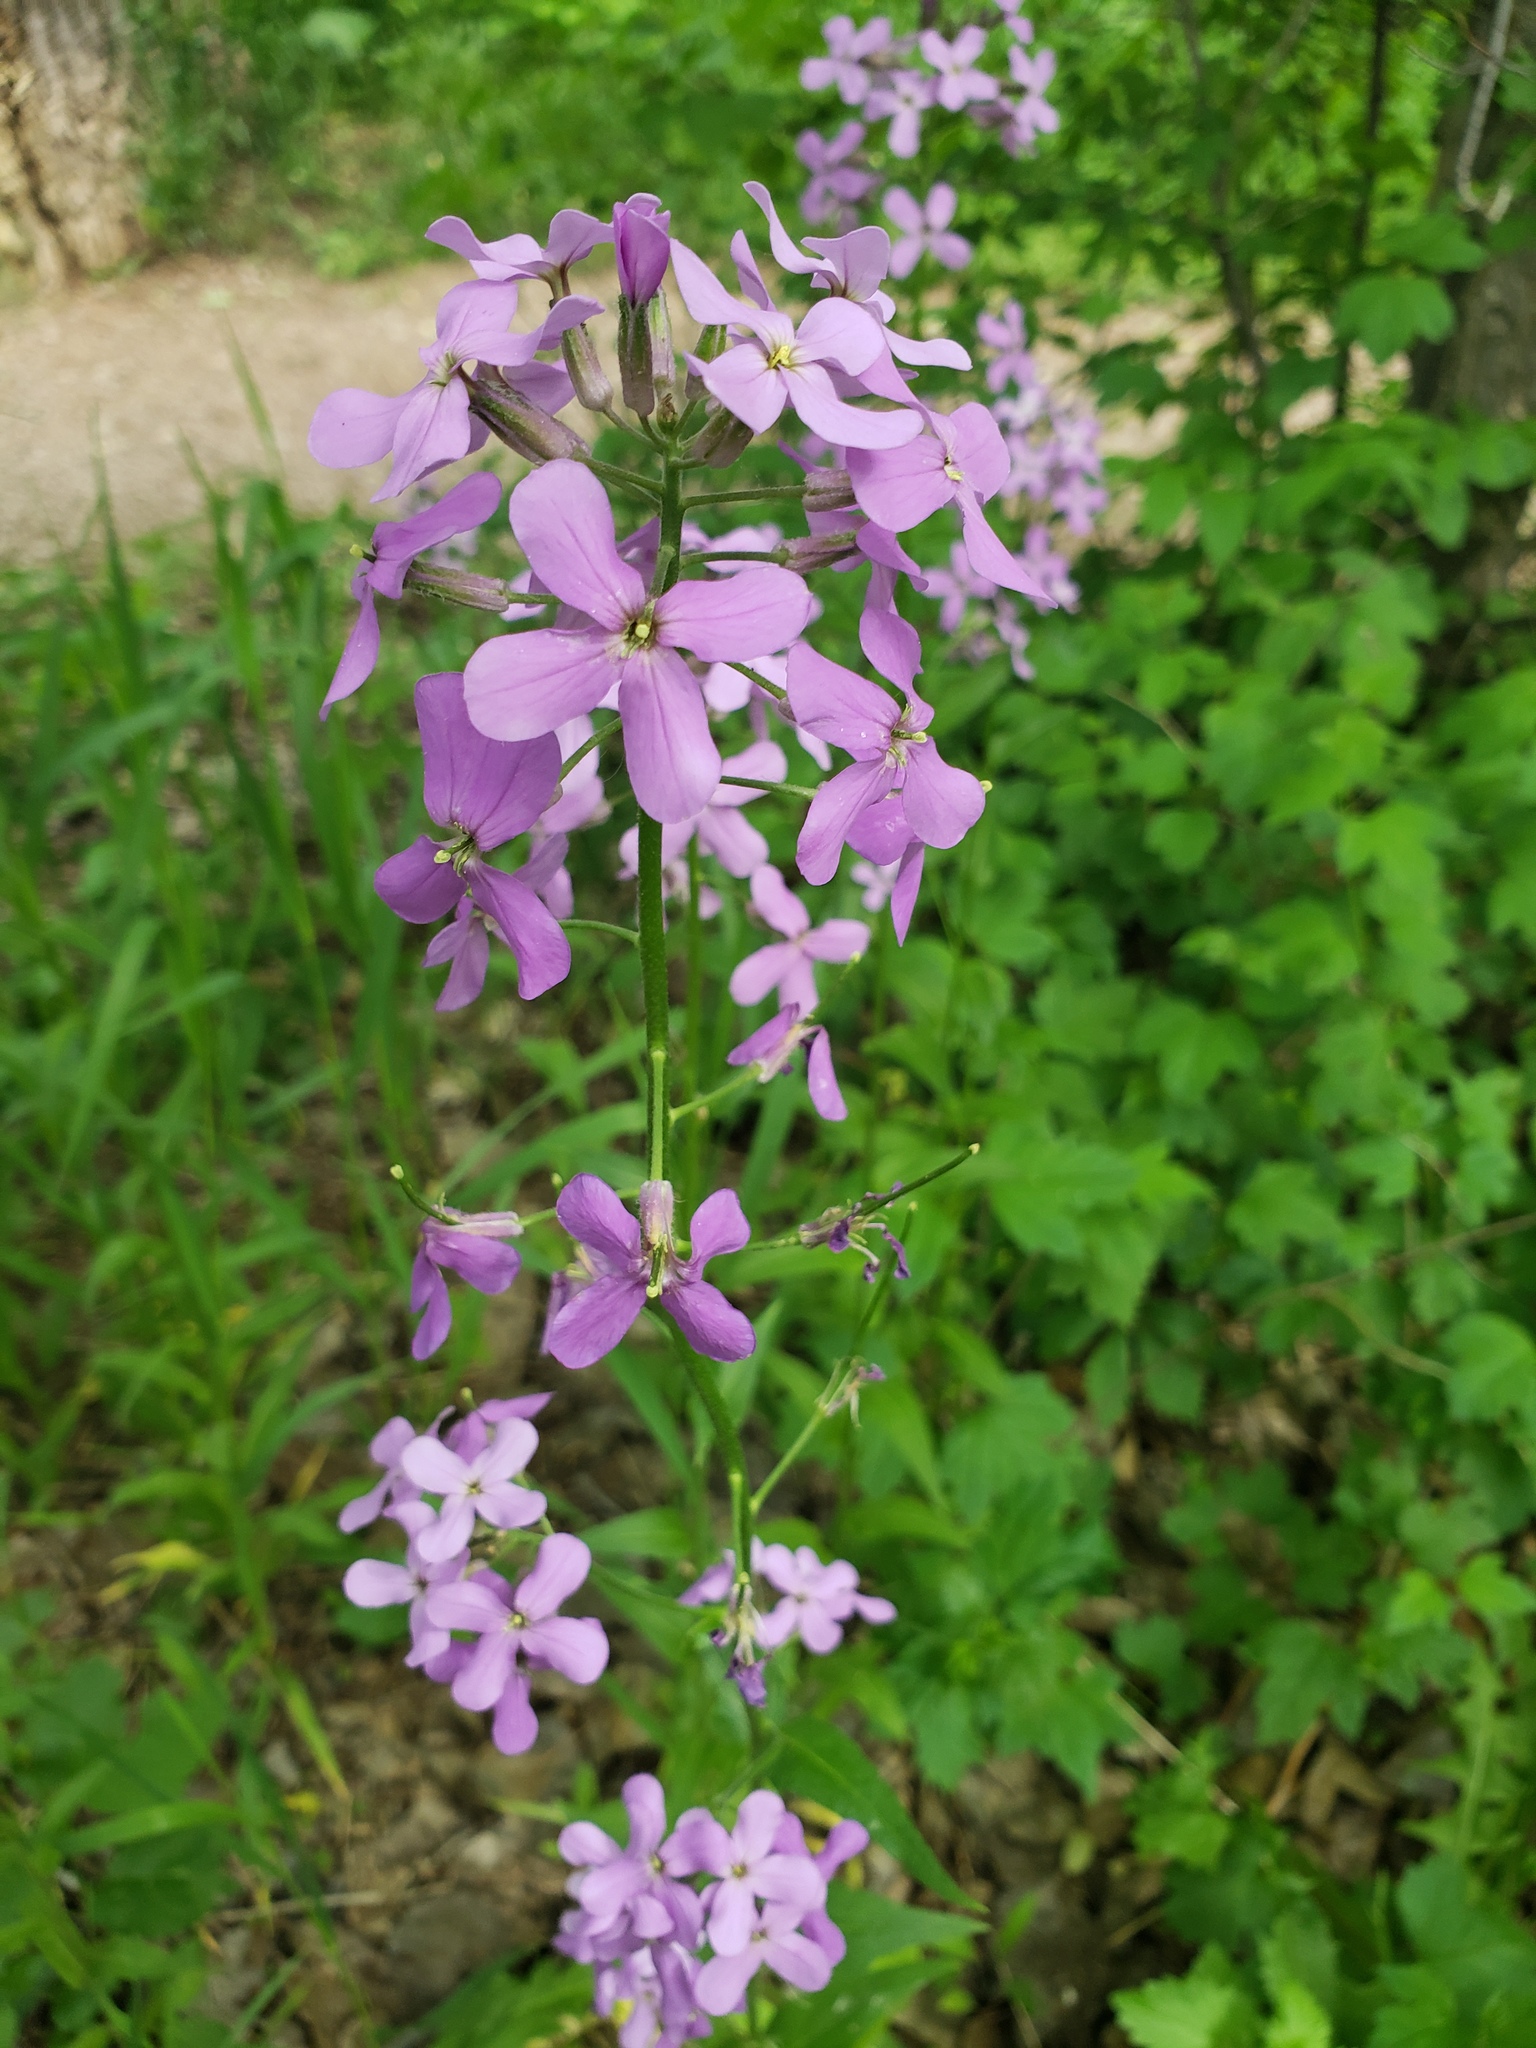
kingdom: Plantae
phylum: Tracheophyta
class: Magnoliopsida
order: Brassicales
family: Brassicaceae
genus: Hesperis
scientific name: Hesperis matronalis
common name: Dame's-violet
